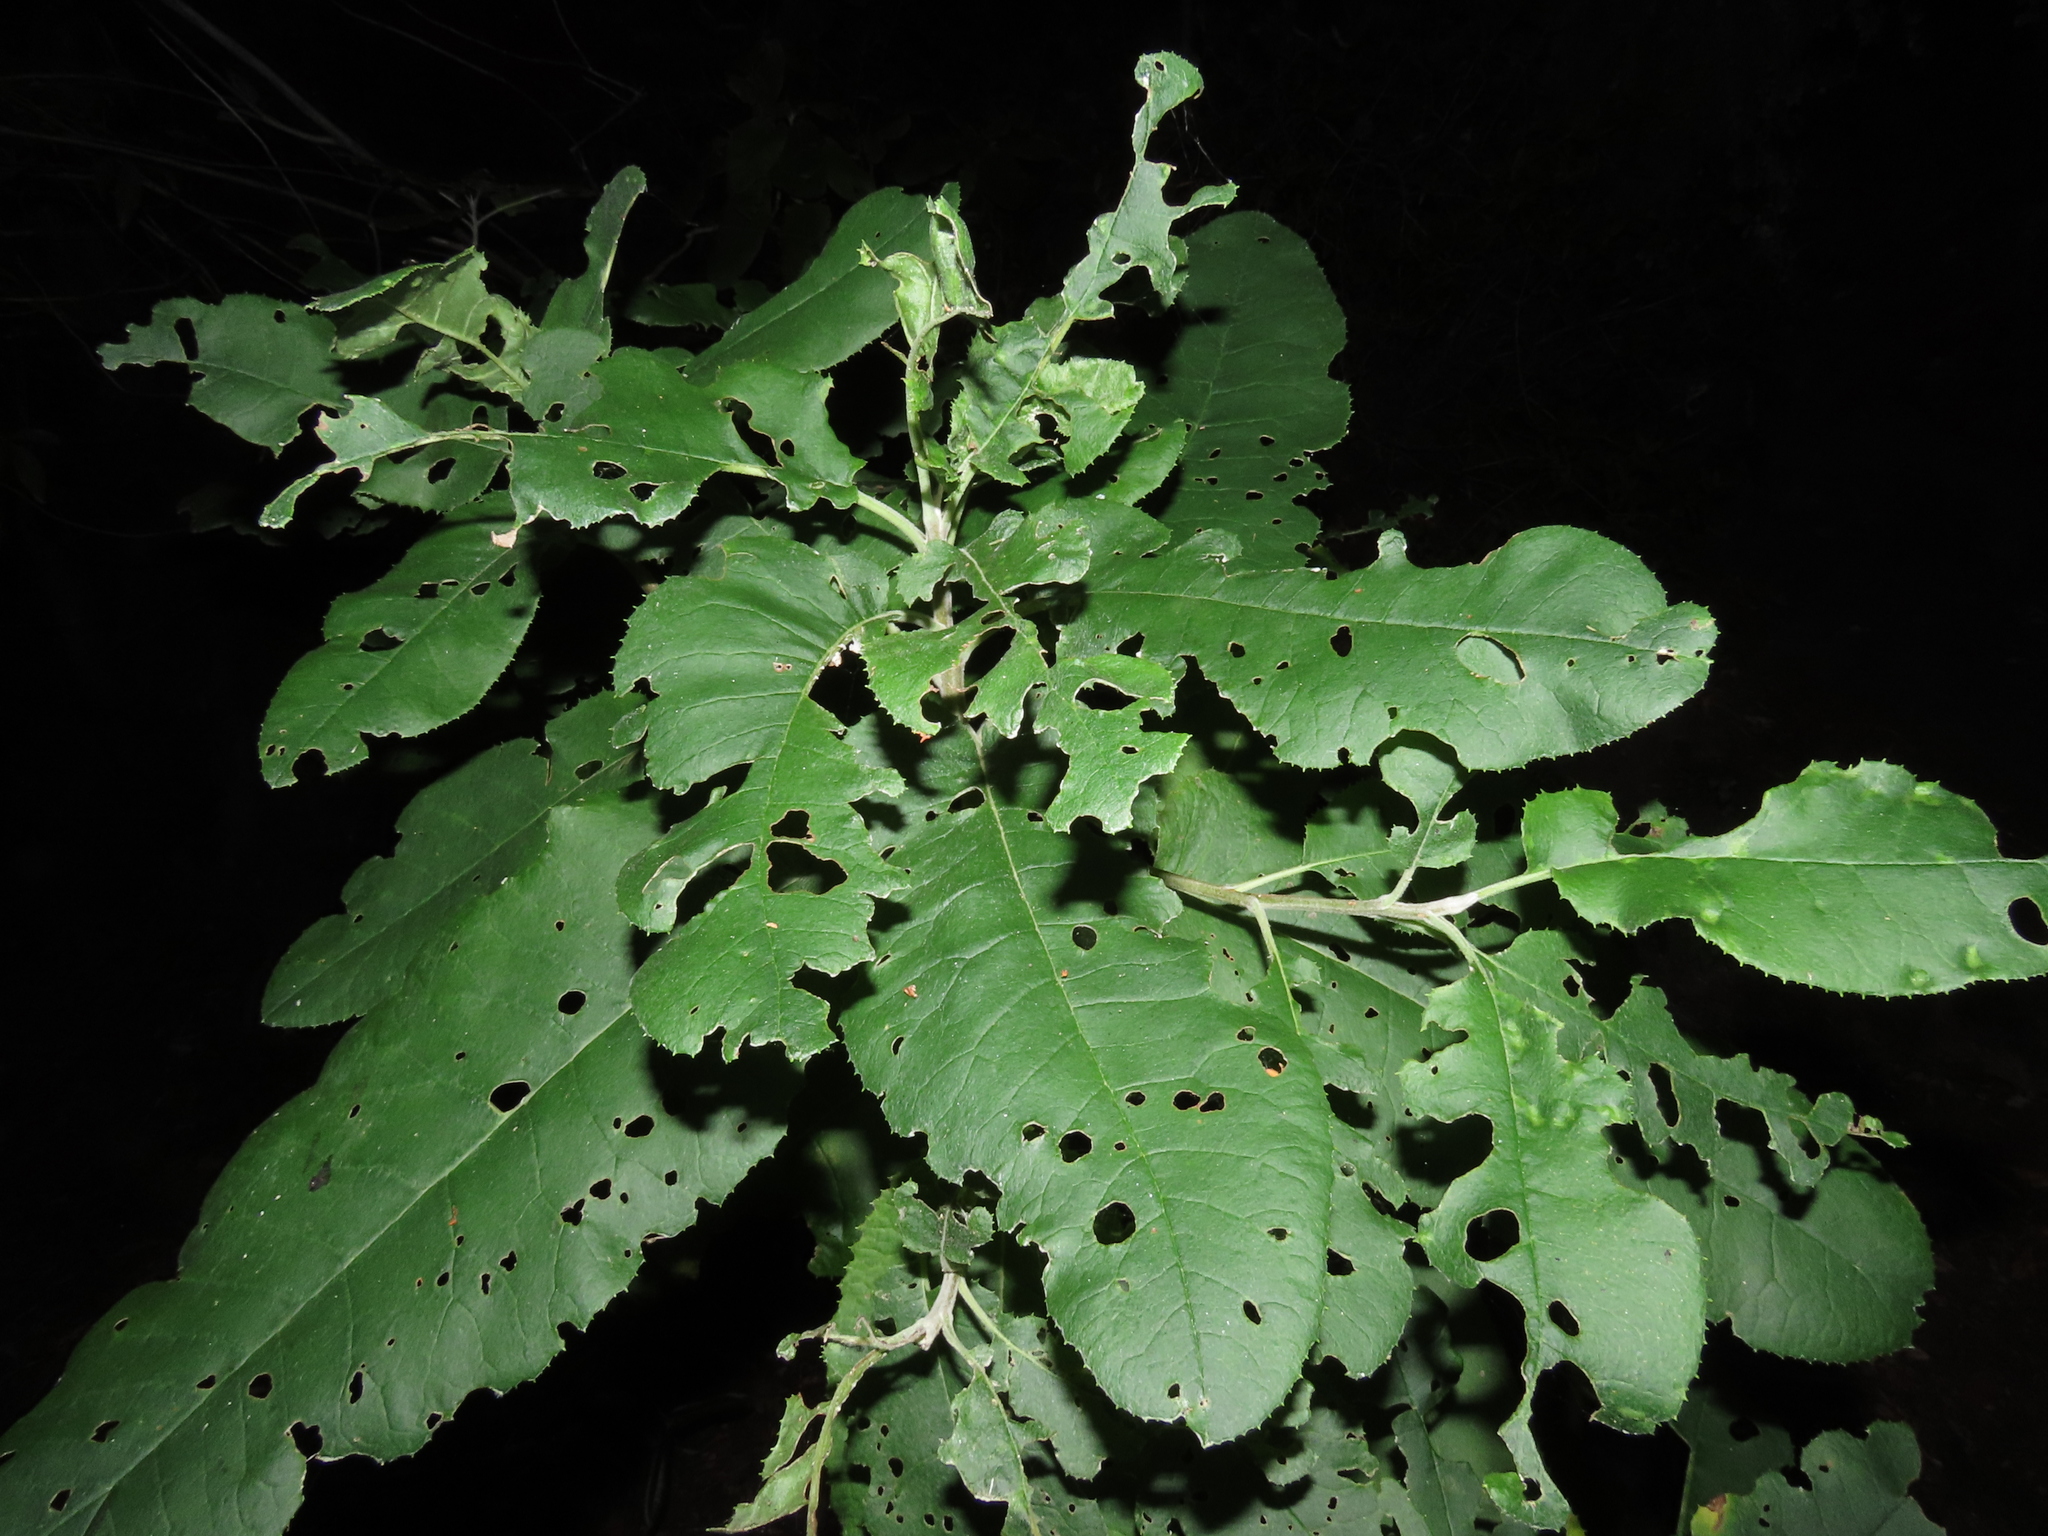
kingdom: Plantae
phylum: Tracheophyta
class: Magnoliopsida
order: Asterales
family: Asteraceae
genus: Acrisione
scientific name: Acrisione denticulata
